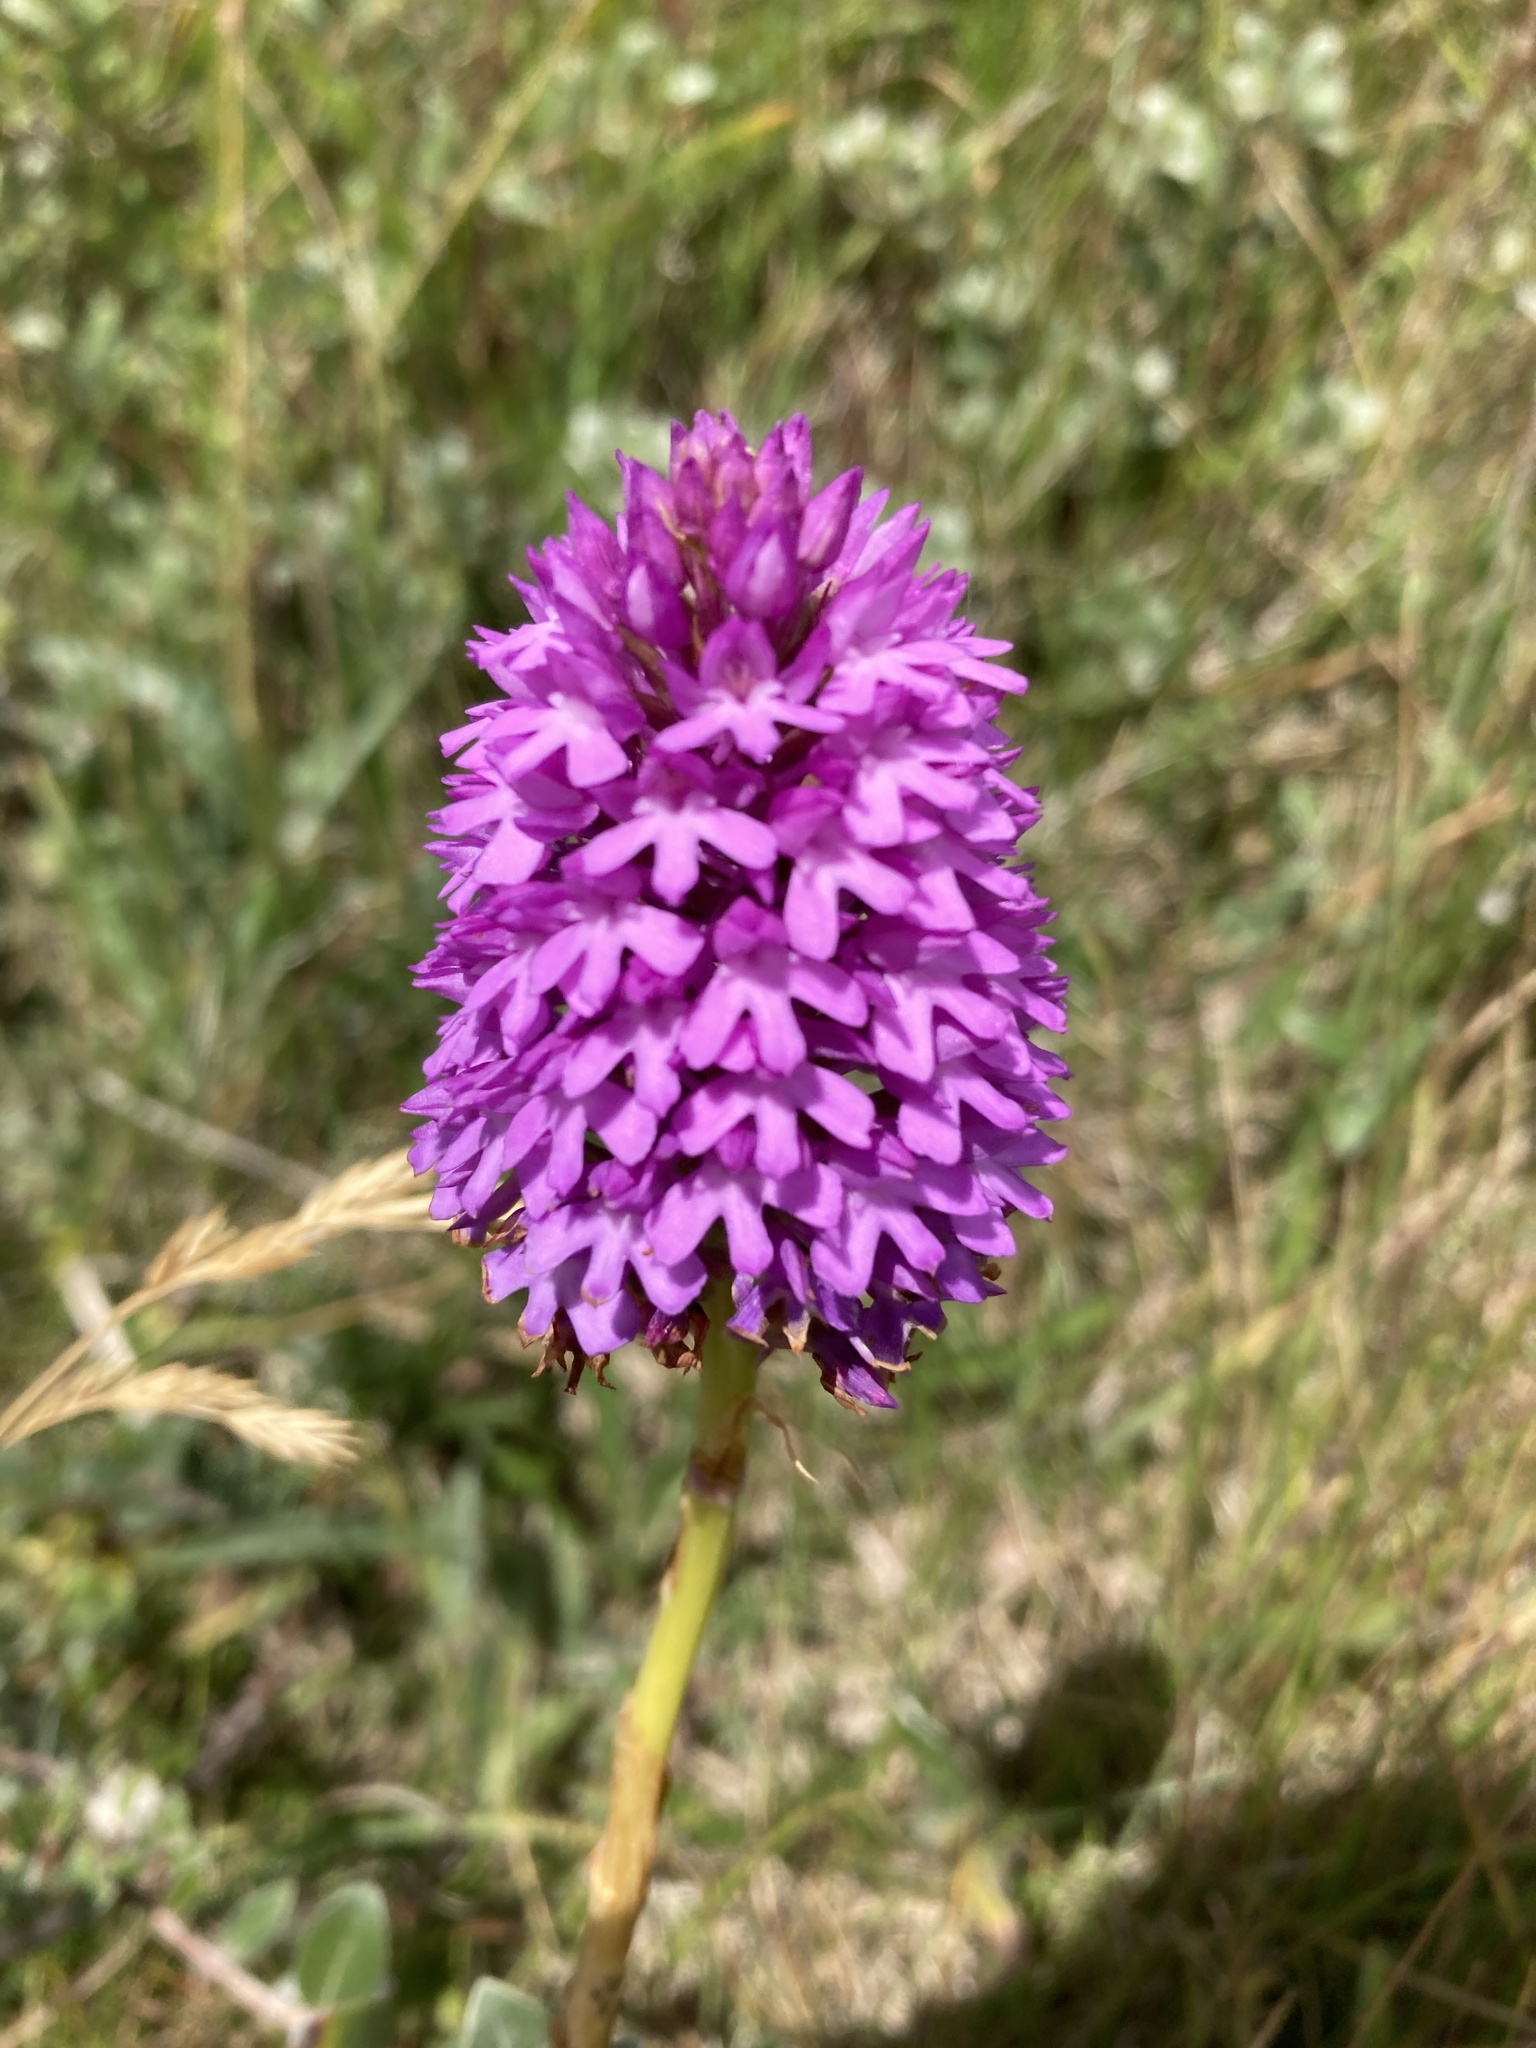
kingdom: Plantae
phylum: Tracheophyta
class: Liliopsida
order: Asparagales
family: Orchidaceae
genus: Anacamptis
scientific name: Anacamptis pyramidalis
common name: Pyramidal orchid
